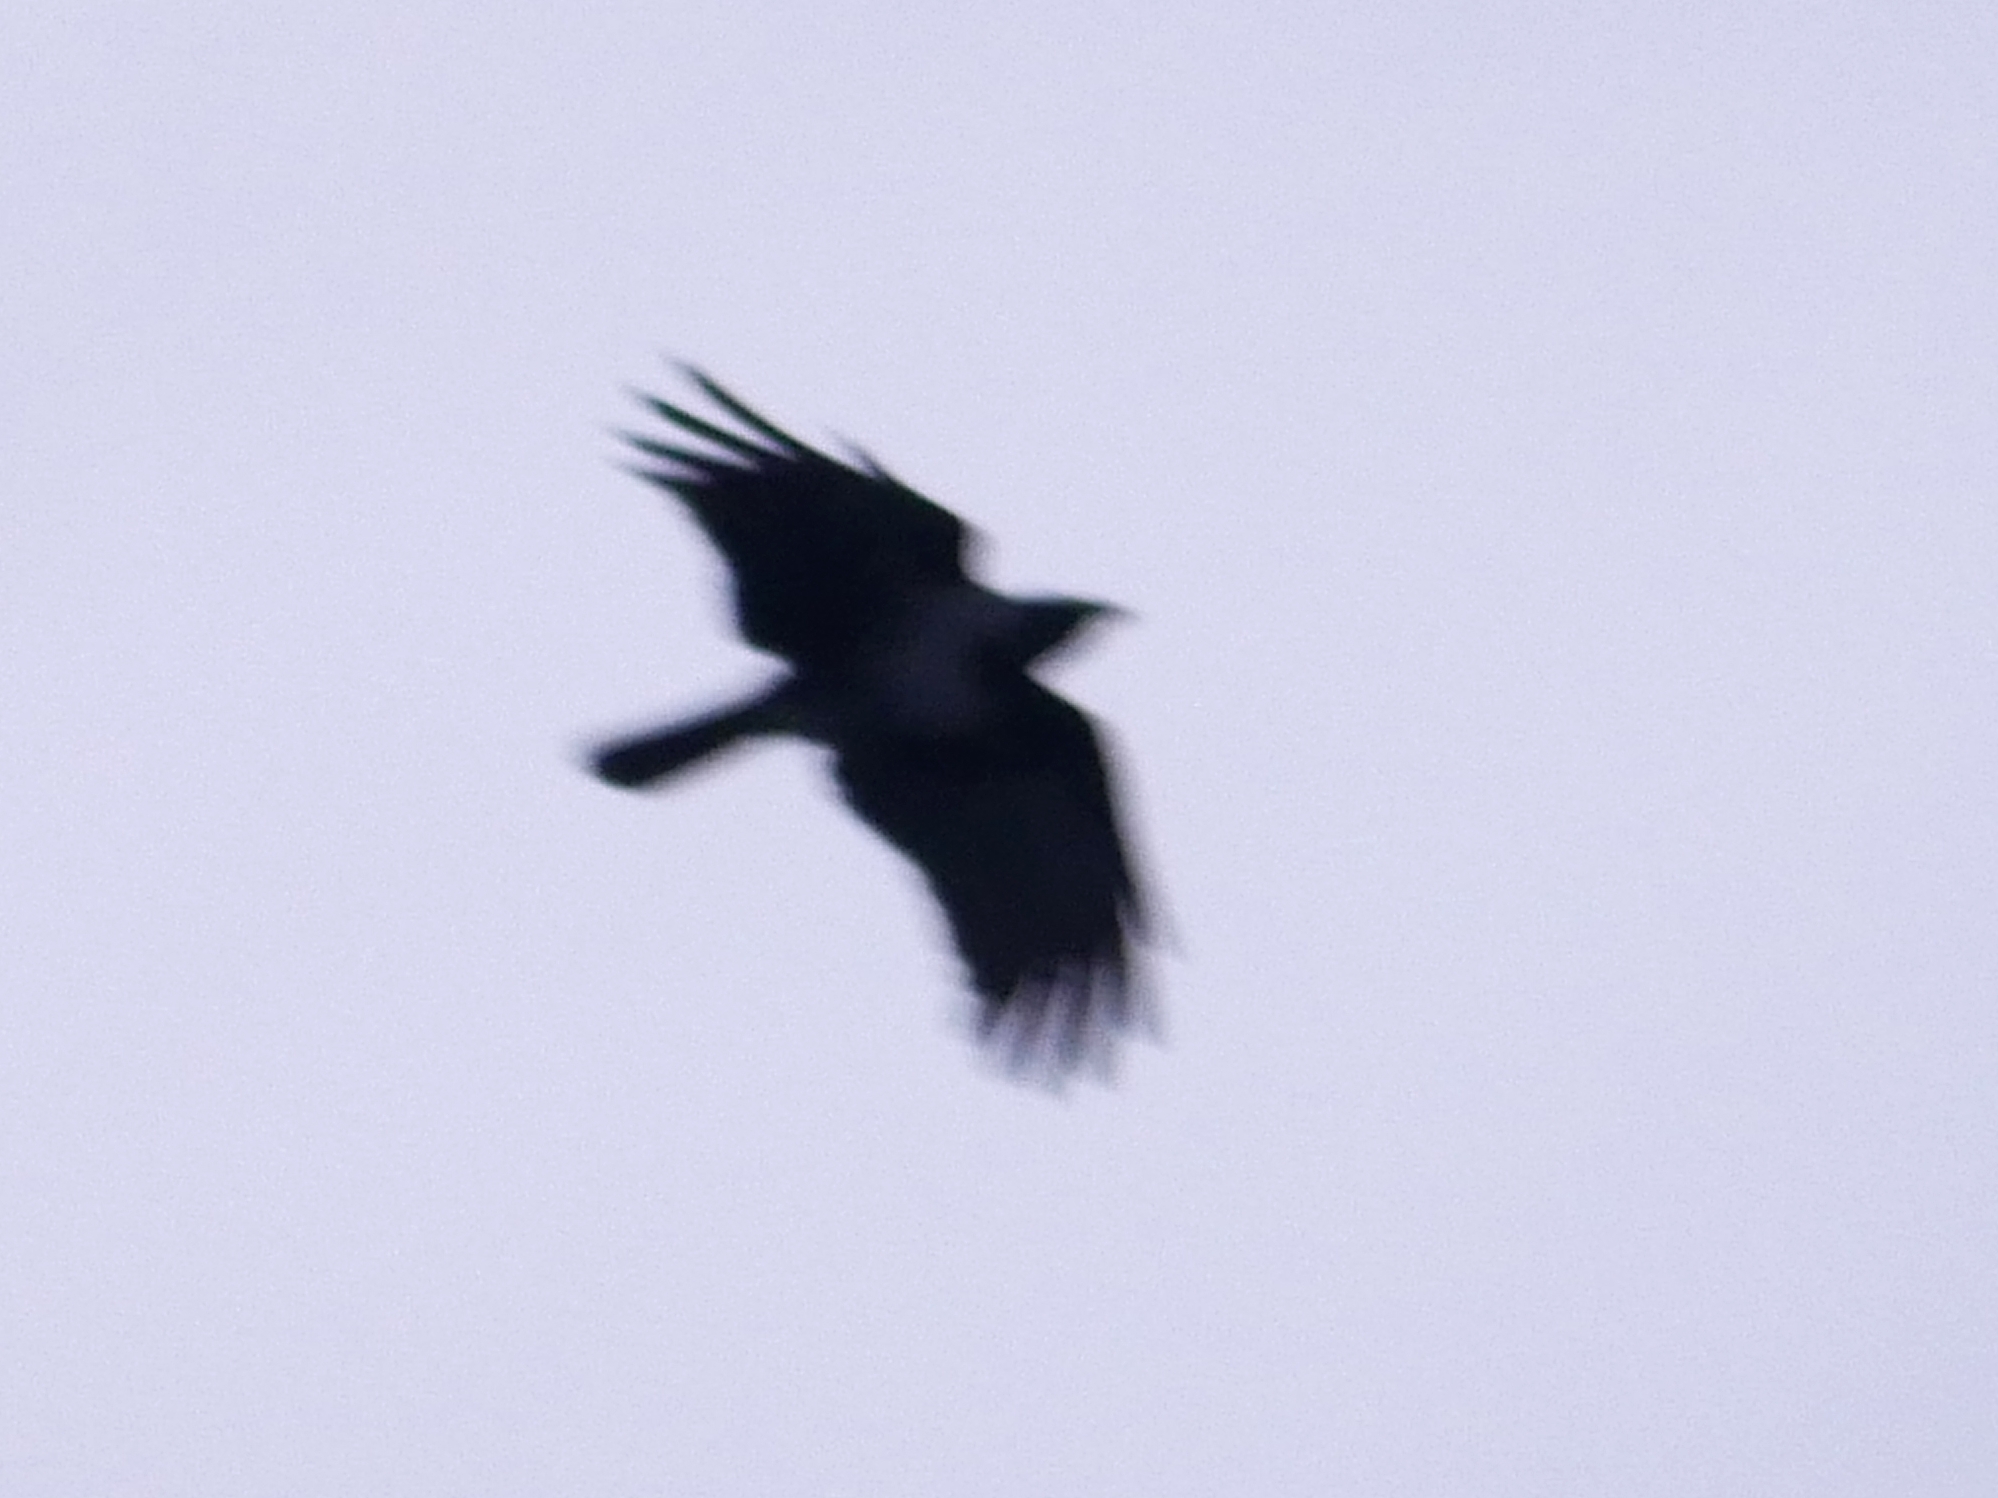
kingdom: Animalia
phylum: Chordata
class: Aves
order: Passeriformes
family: Corvidae
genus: Corvus
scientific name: Corvus cornix
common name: Hooded crow
